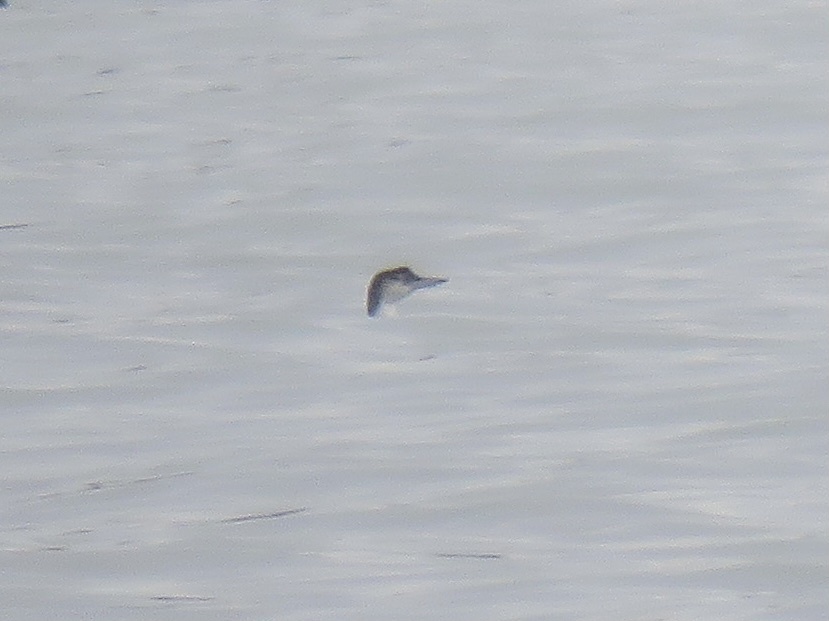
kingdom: Animalia
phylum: Chordata
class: Aves
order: Gaviiformes
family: Gaviidae
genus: Gavia
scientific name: Gavia immer
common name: Common loon
